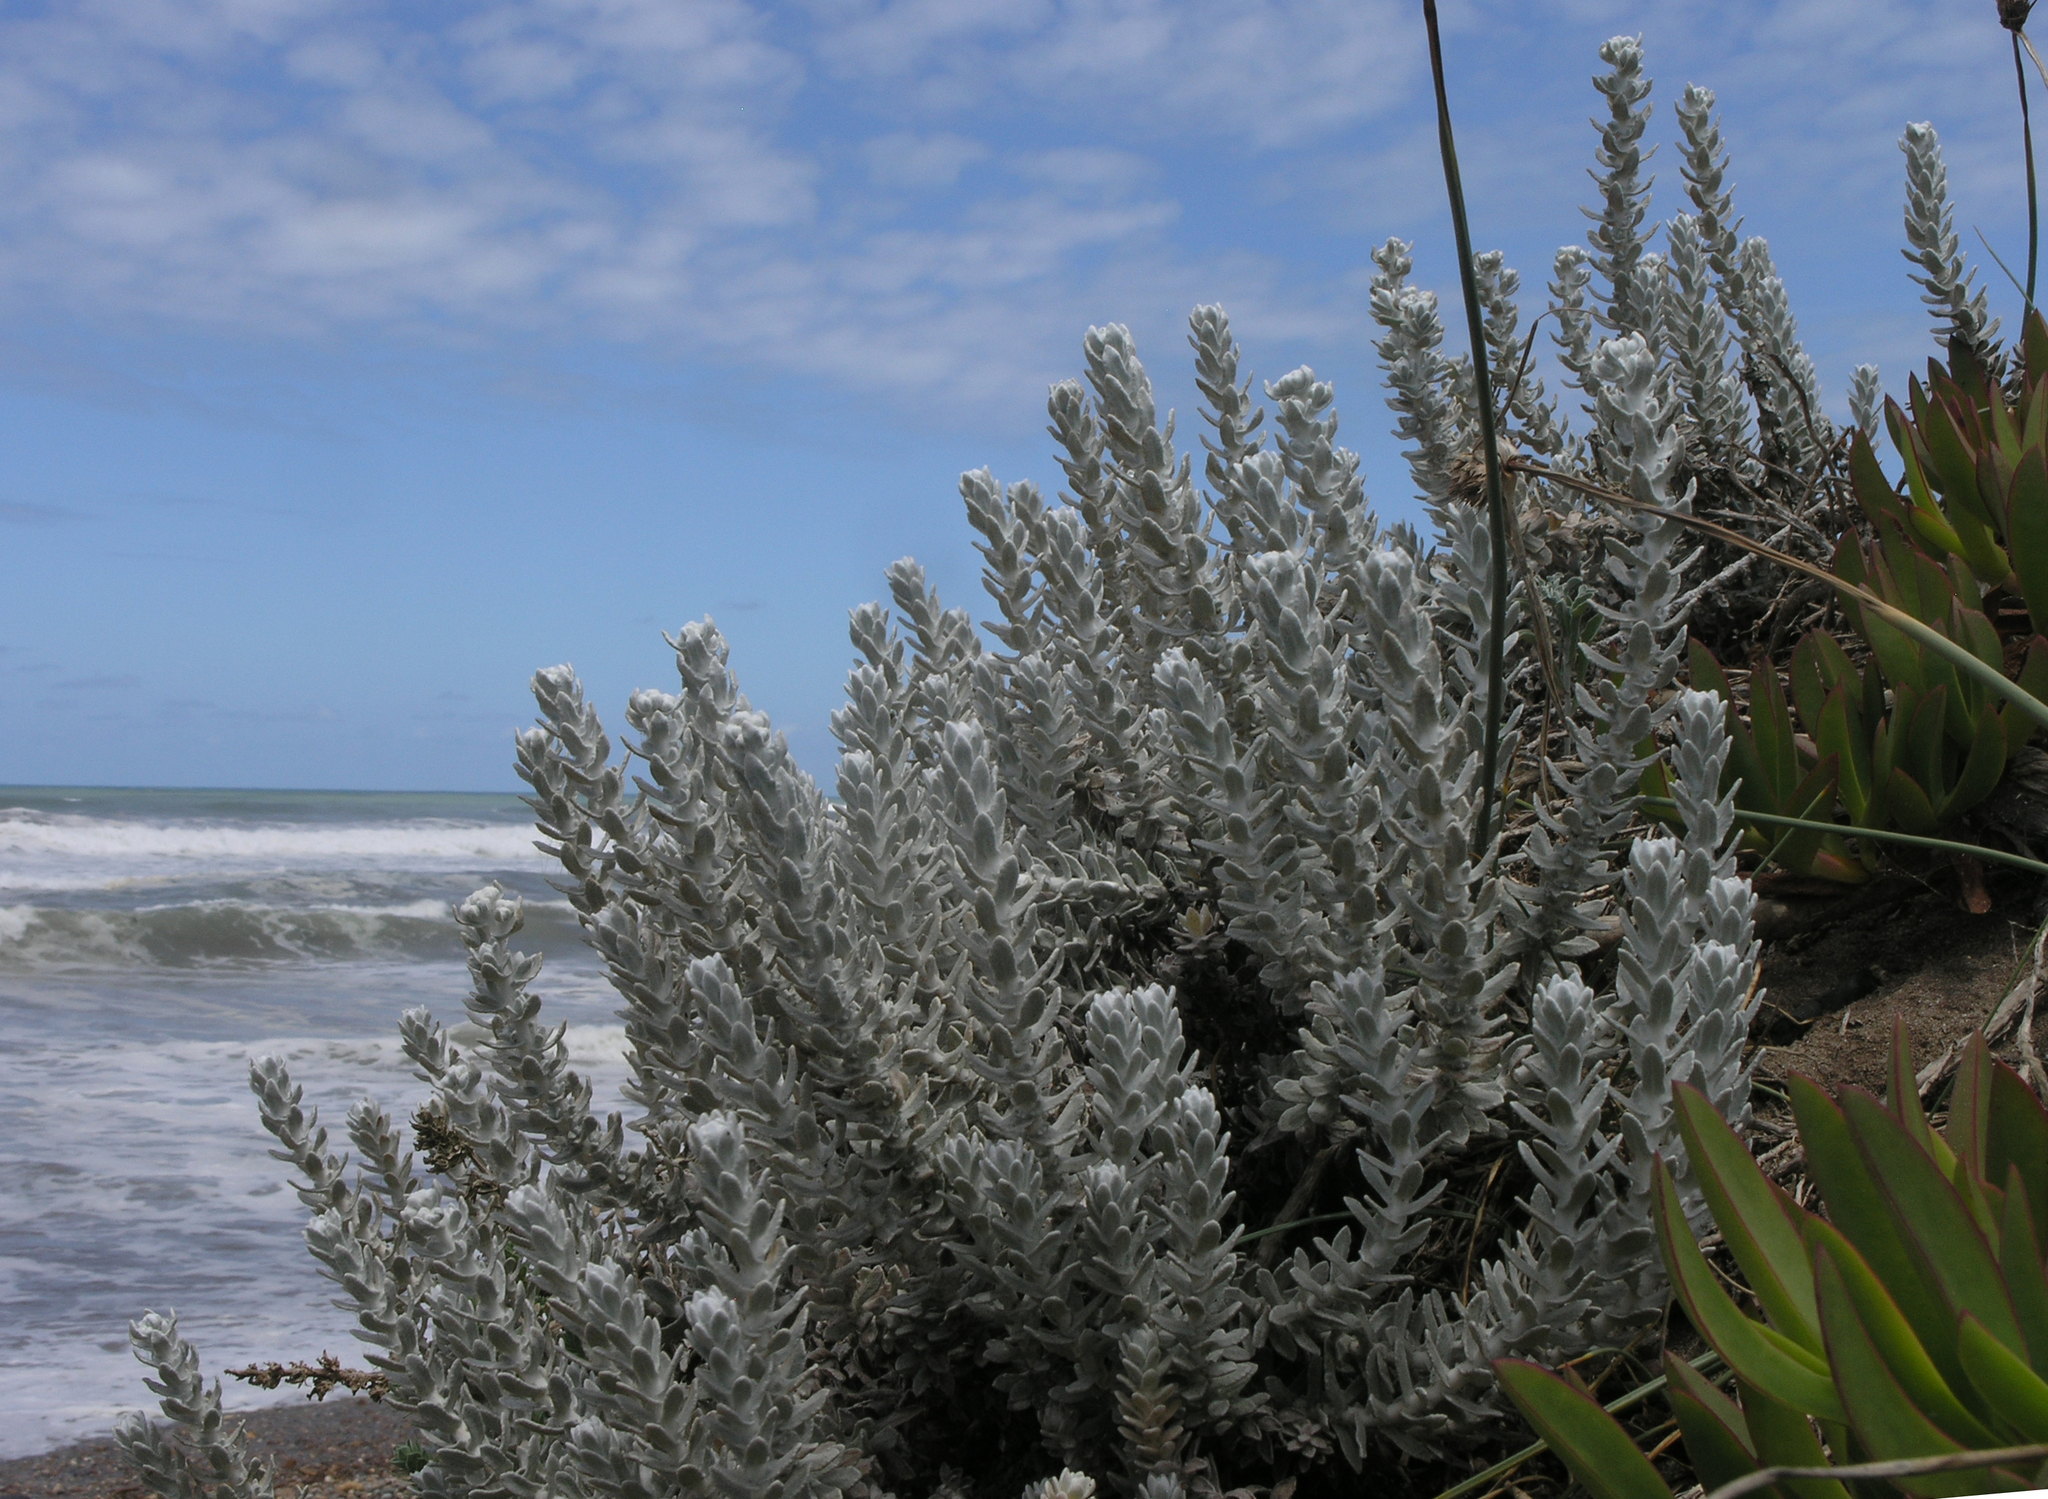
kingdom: Plantae
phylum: Tracheophyta
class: Magnoliopsida
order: Asterales
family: Asteraceae
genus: Achillea
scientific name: Achillea maritima
